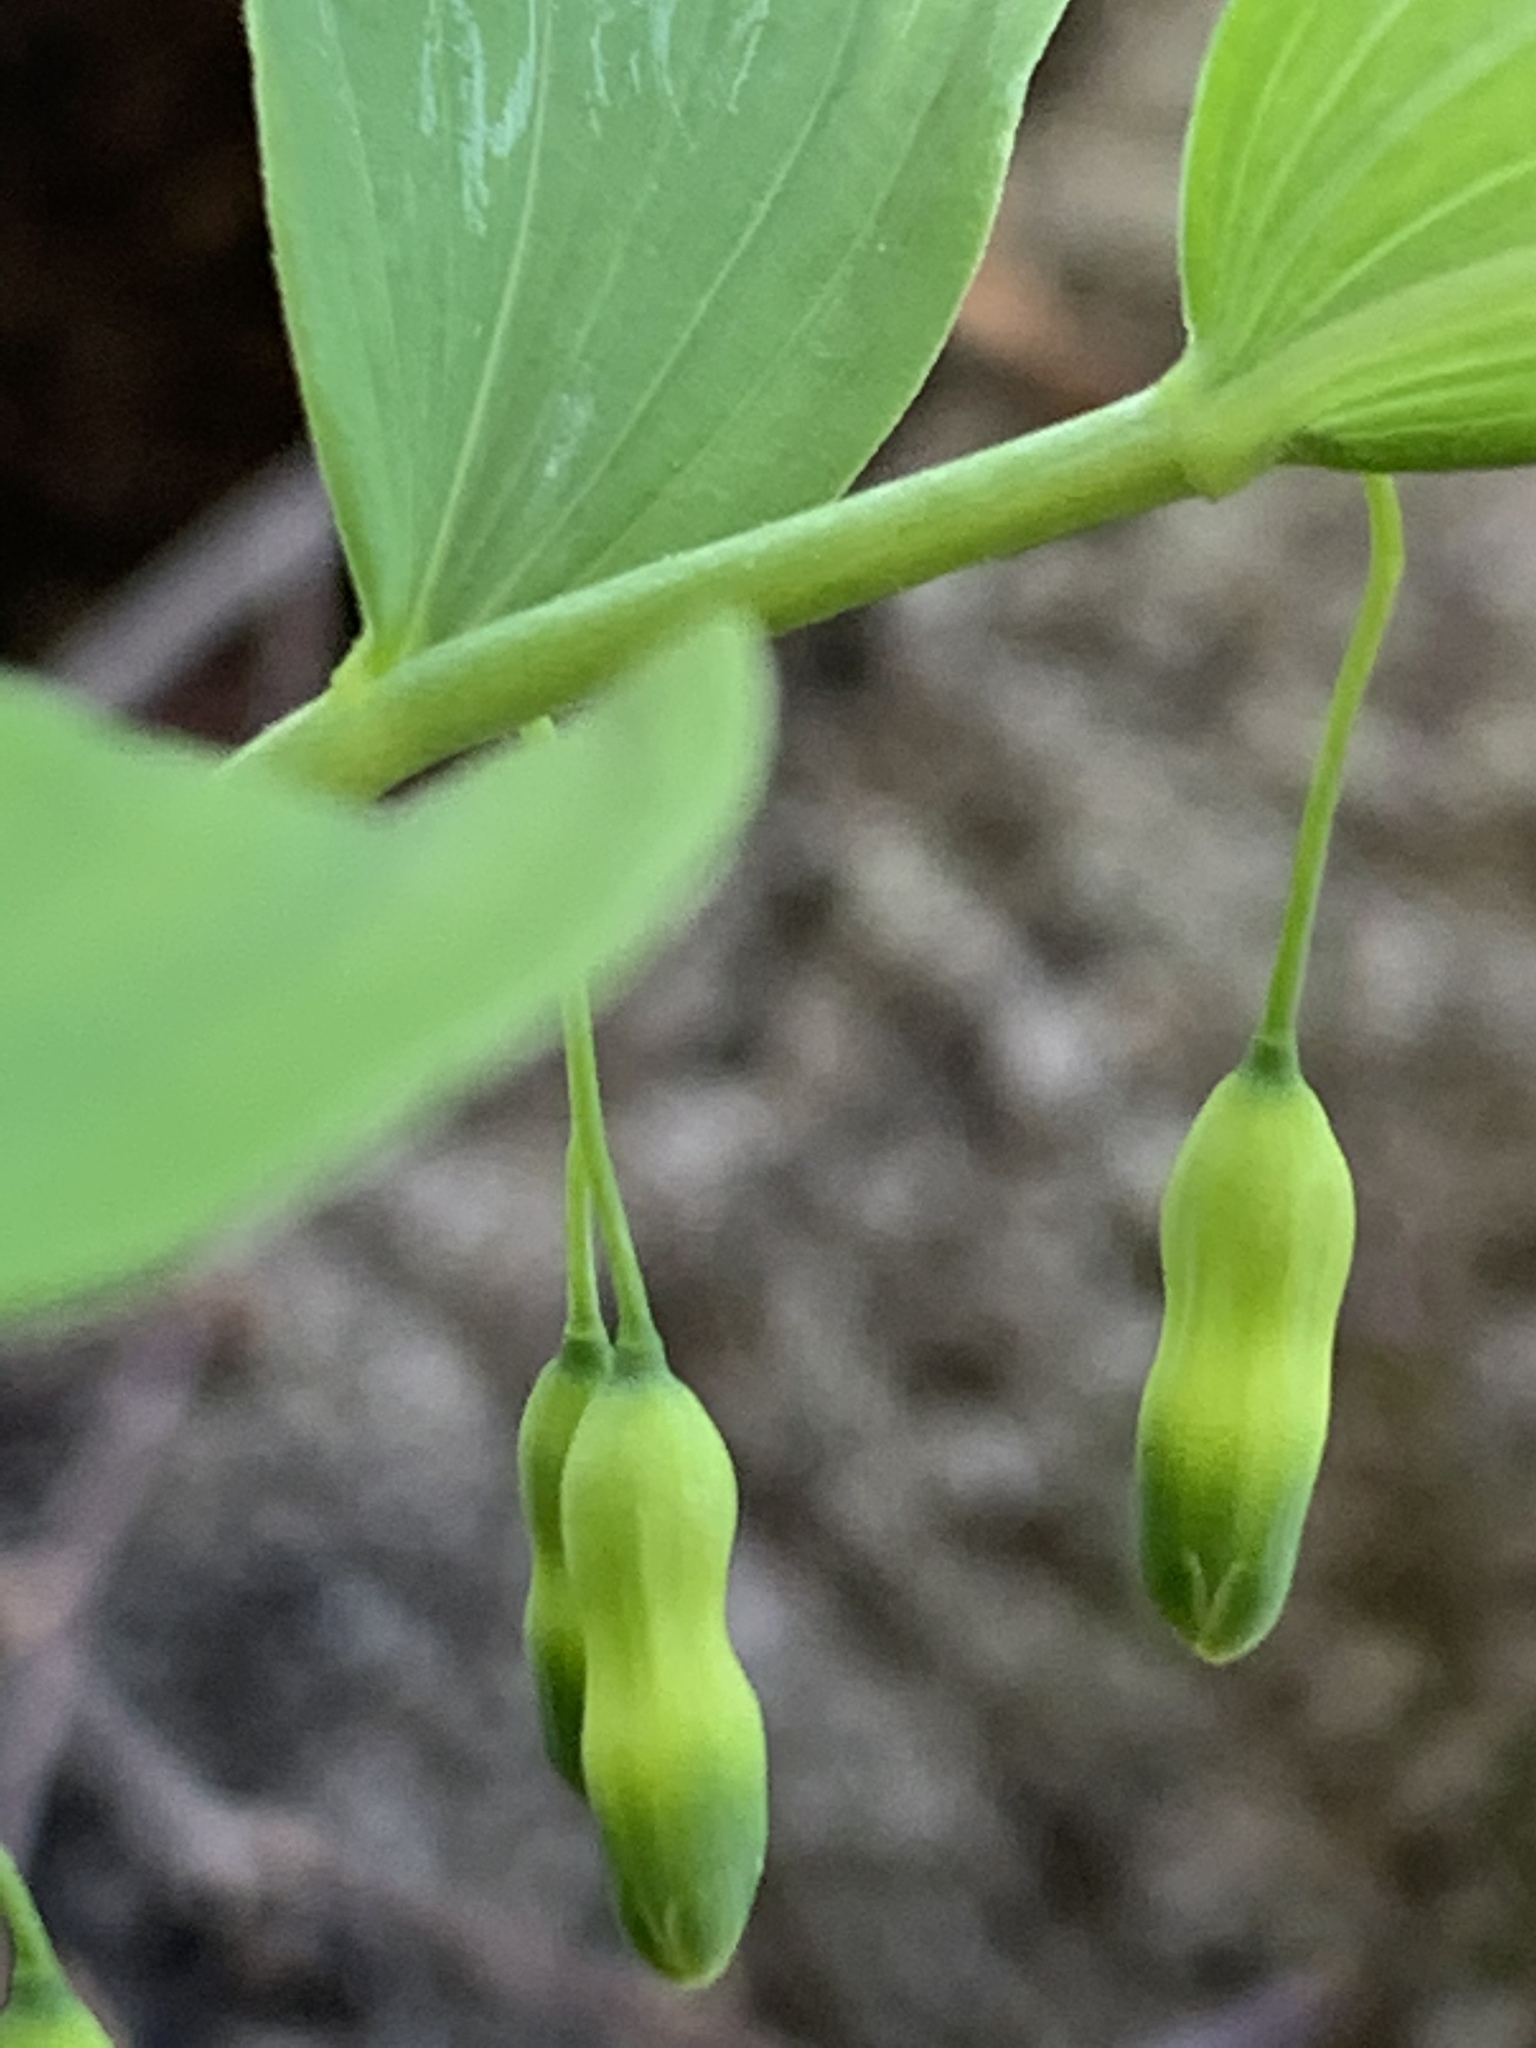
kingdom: Plantae
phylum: Tracheophyta
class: Liliopsida
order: Asparagales
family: Asparagaceae
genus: Polygonatum
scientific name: Polygonatum pubescens
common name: Downy solomon's seal
